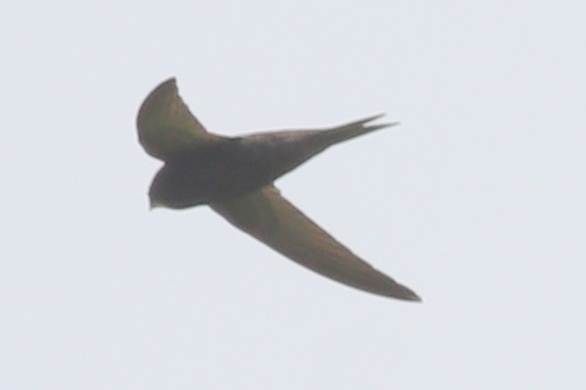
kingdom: Animalia
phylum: Chordata
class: Aves
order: Apodiformes
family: Apodidae
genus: Apus
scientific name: Apus apus
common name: Common swift
